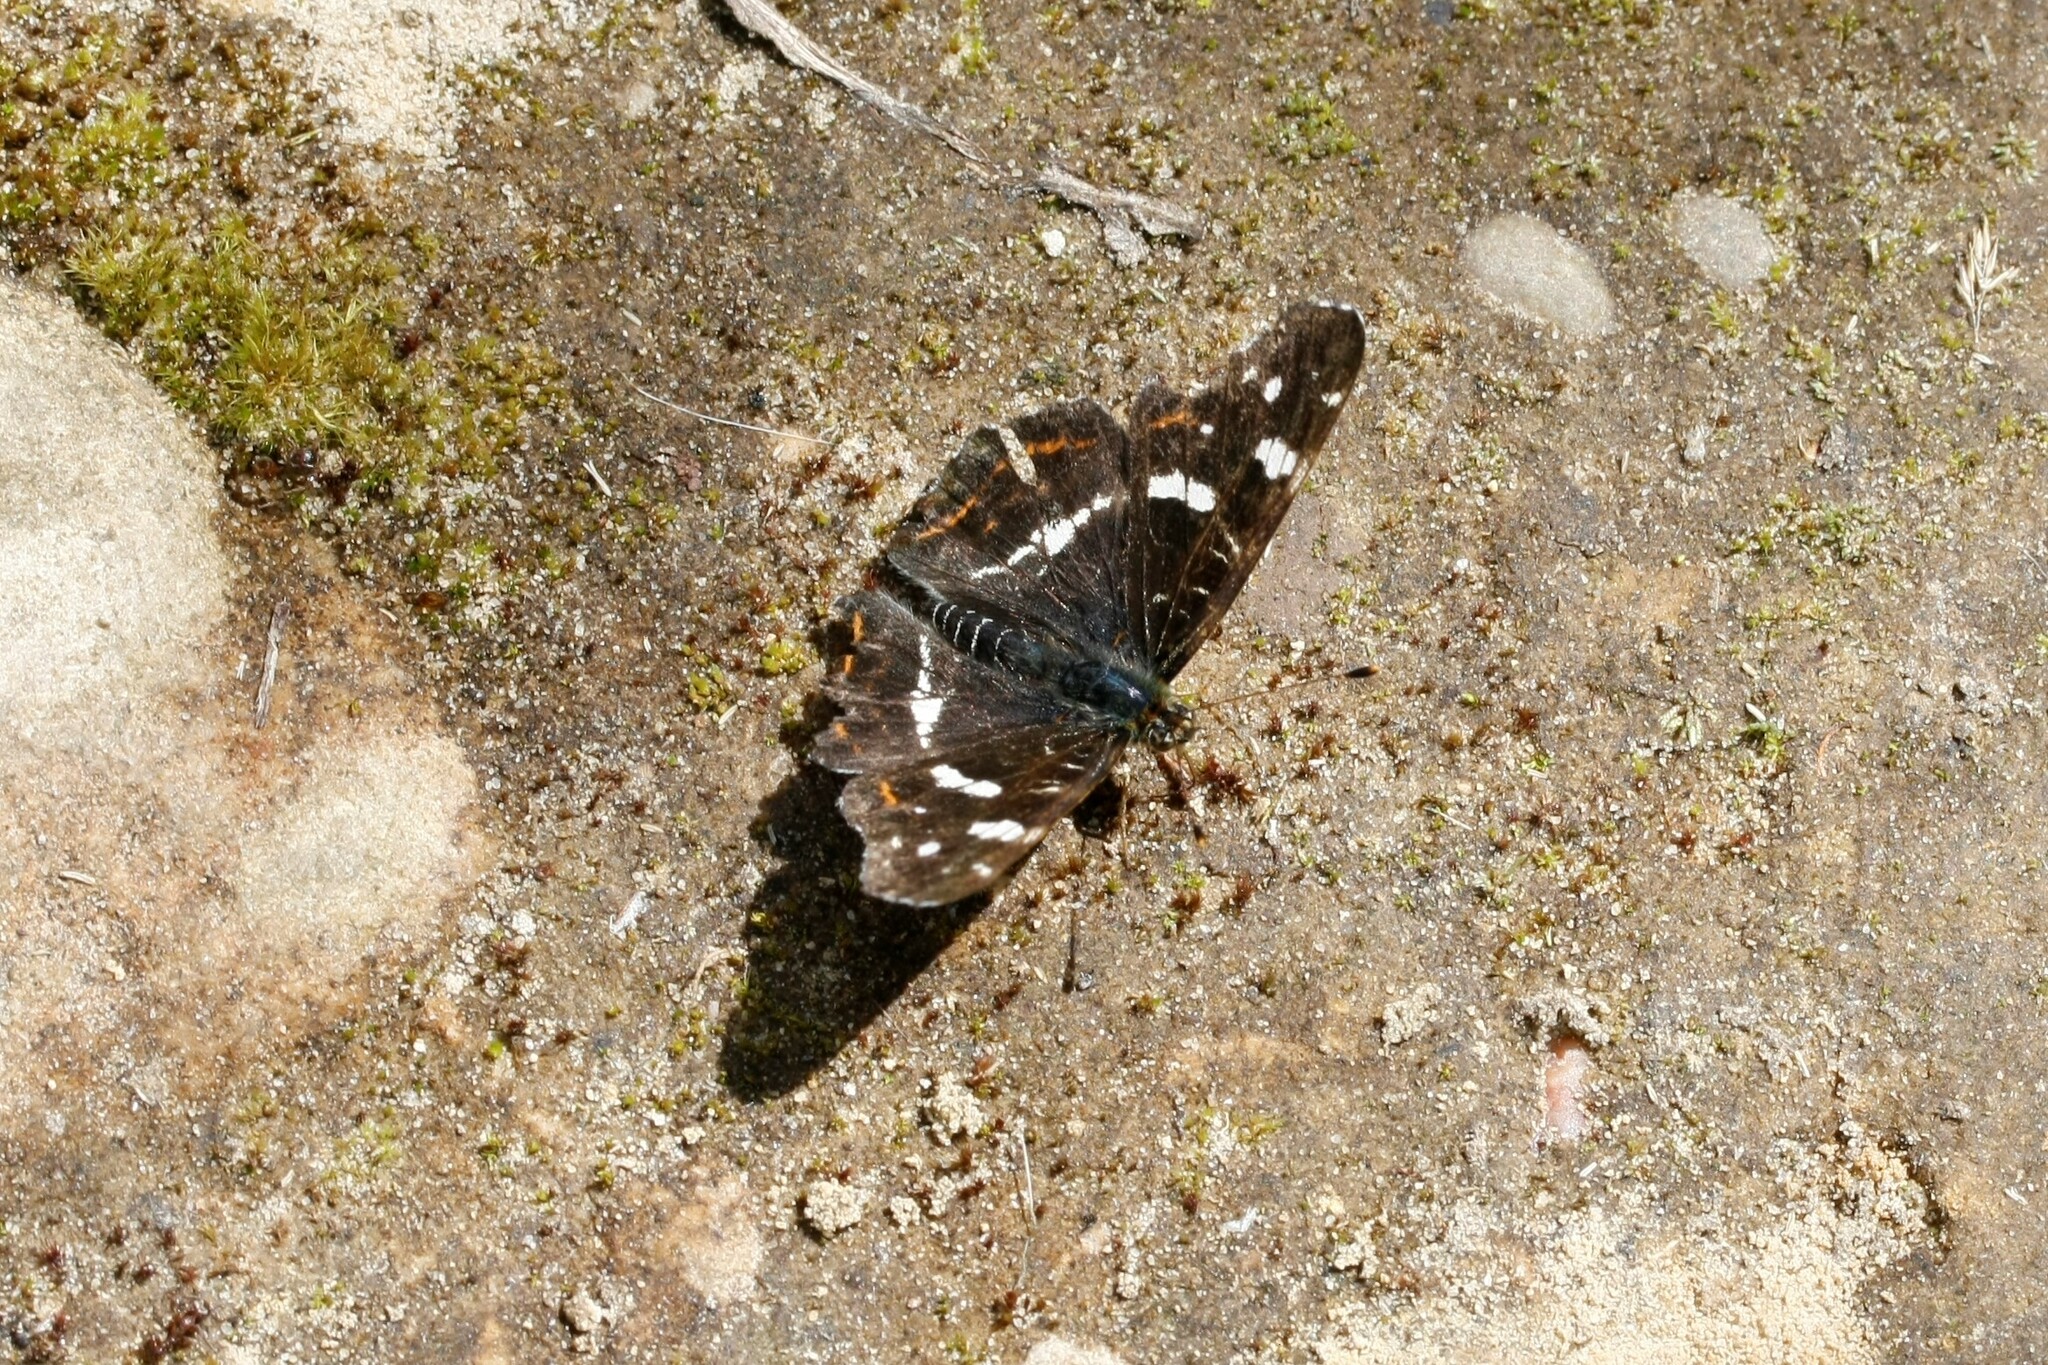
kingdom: Animalia
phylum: Arthropoda
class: Insecta
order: Lepidoptera
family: Nymphalidae
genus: Araschnia
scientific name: Araschnia levana
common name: Map butterfly
